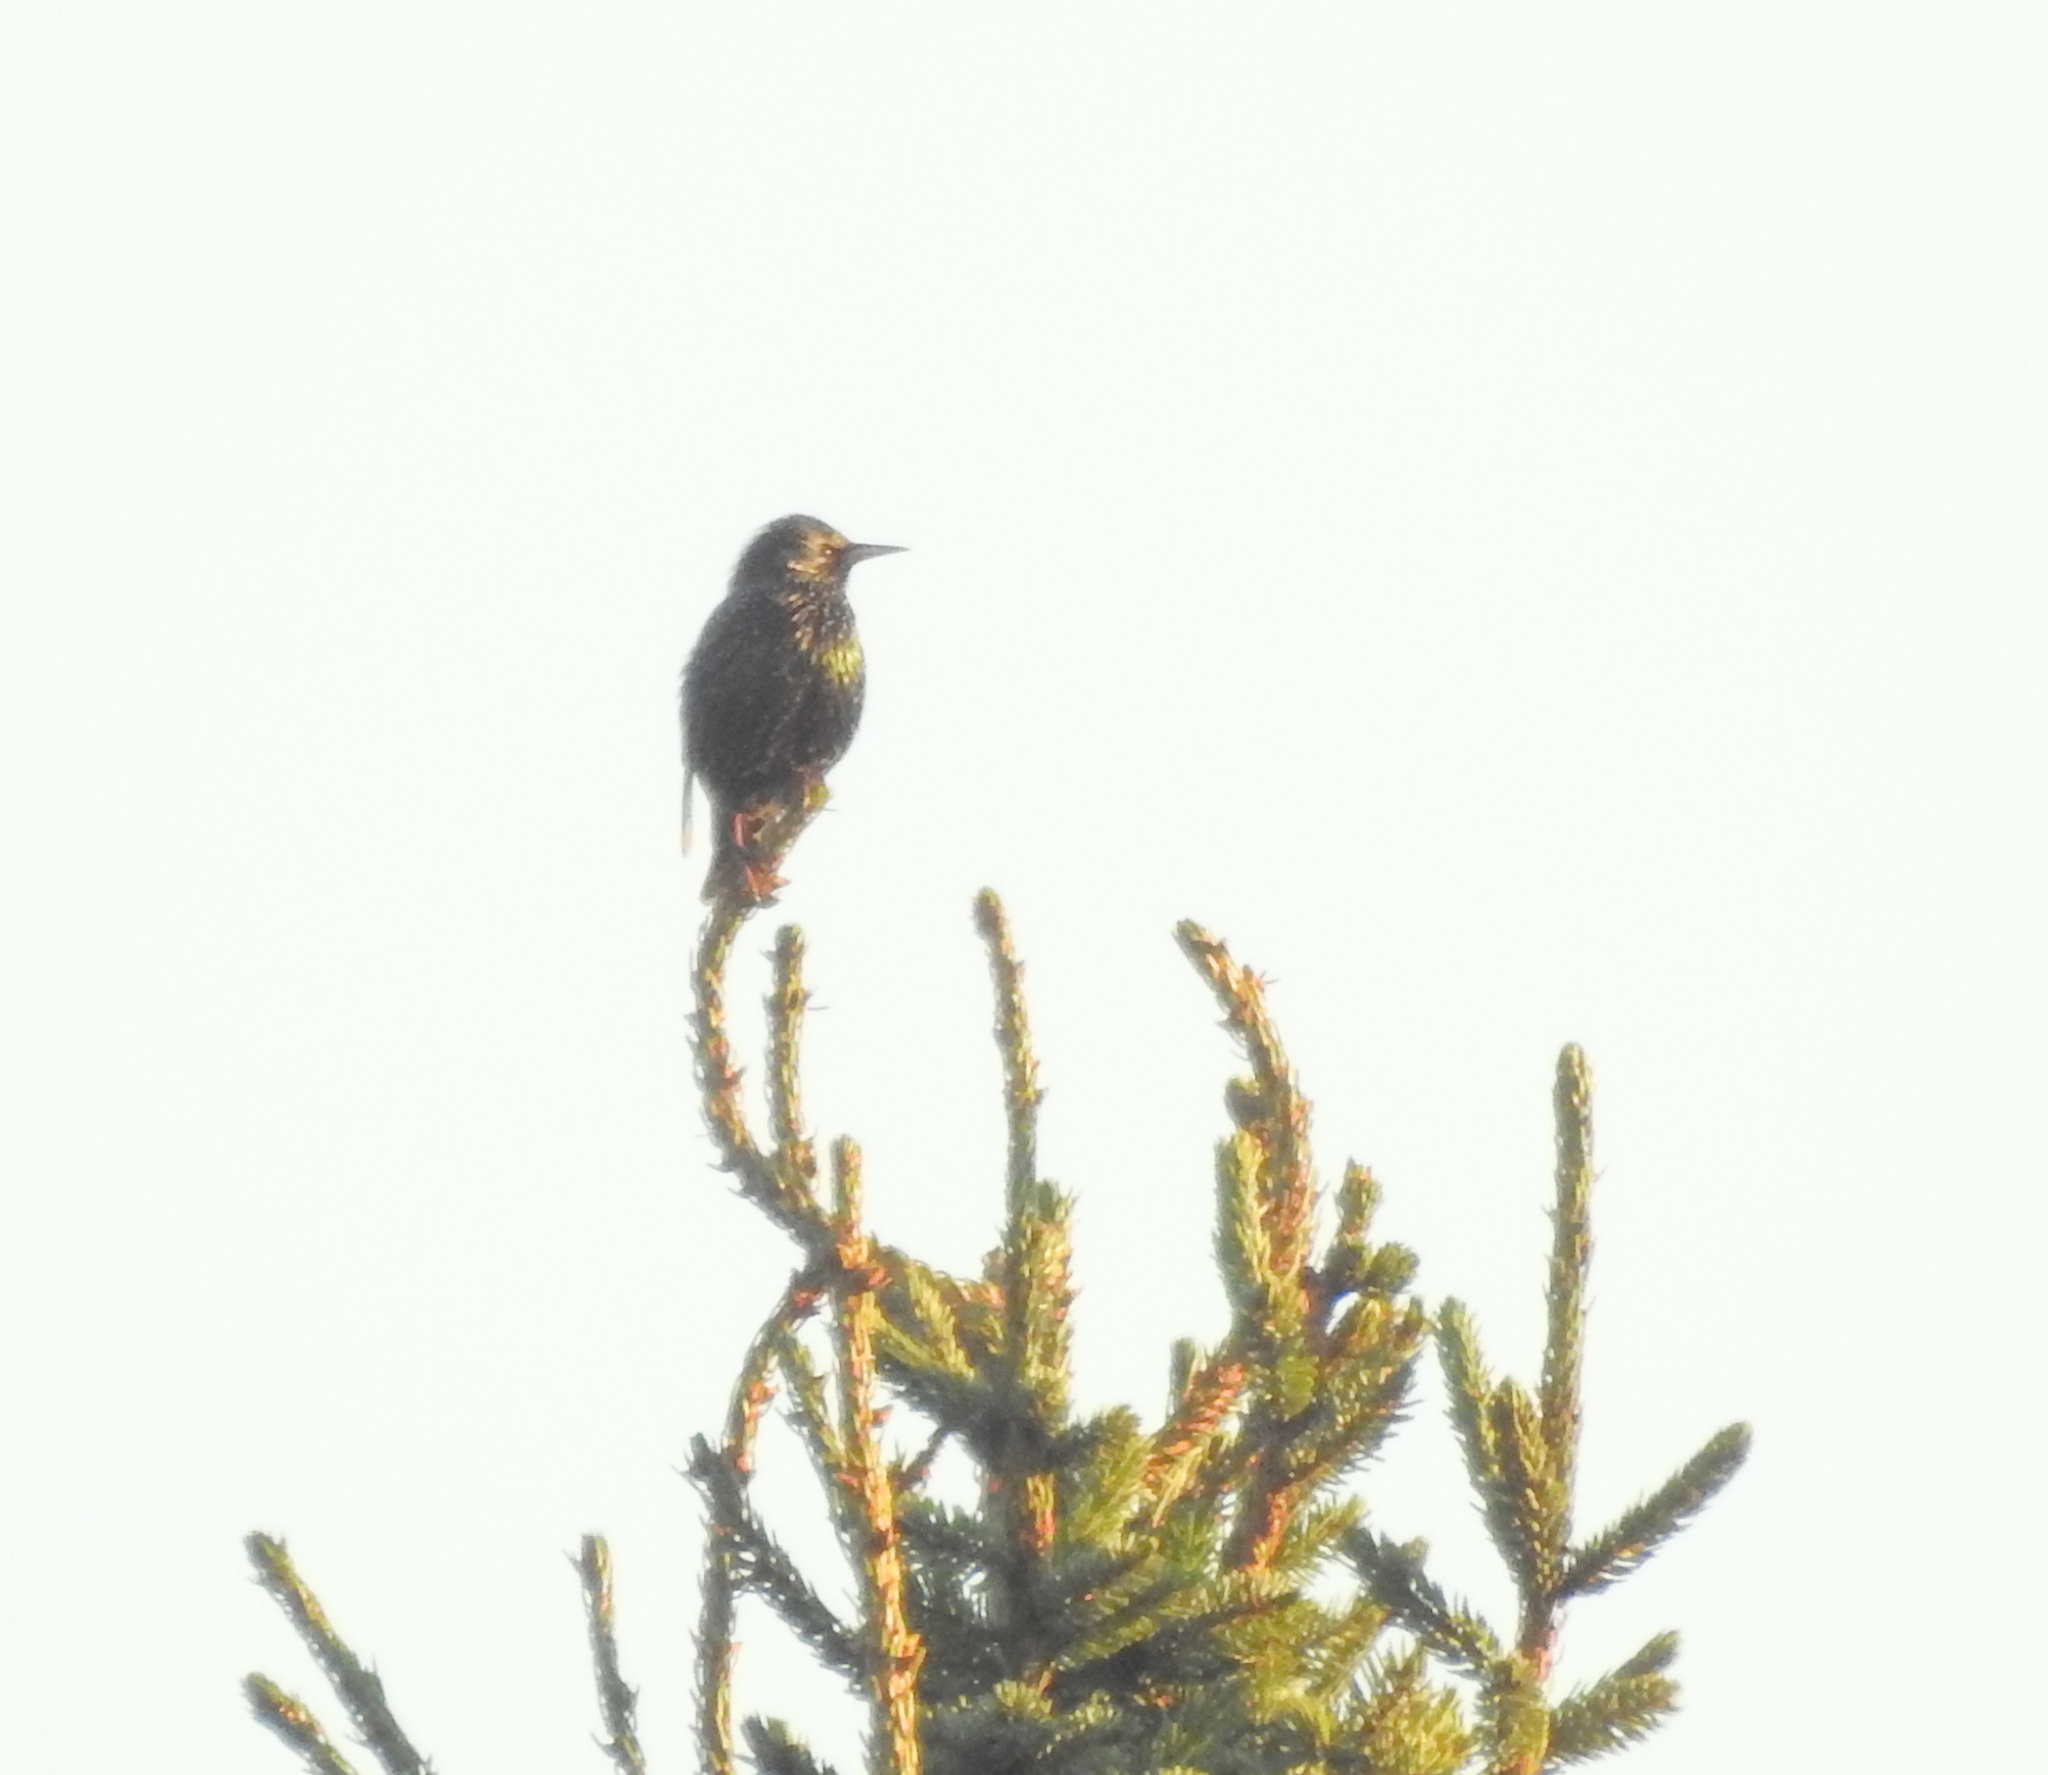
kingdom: Animalia
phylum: Chordata
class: Aves
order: Passeriformes
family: Sturnidae
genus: Sturnus
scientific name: Sturnus vulgaris
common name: Common starling
